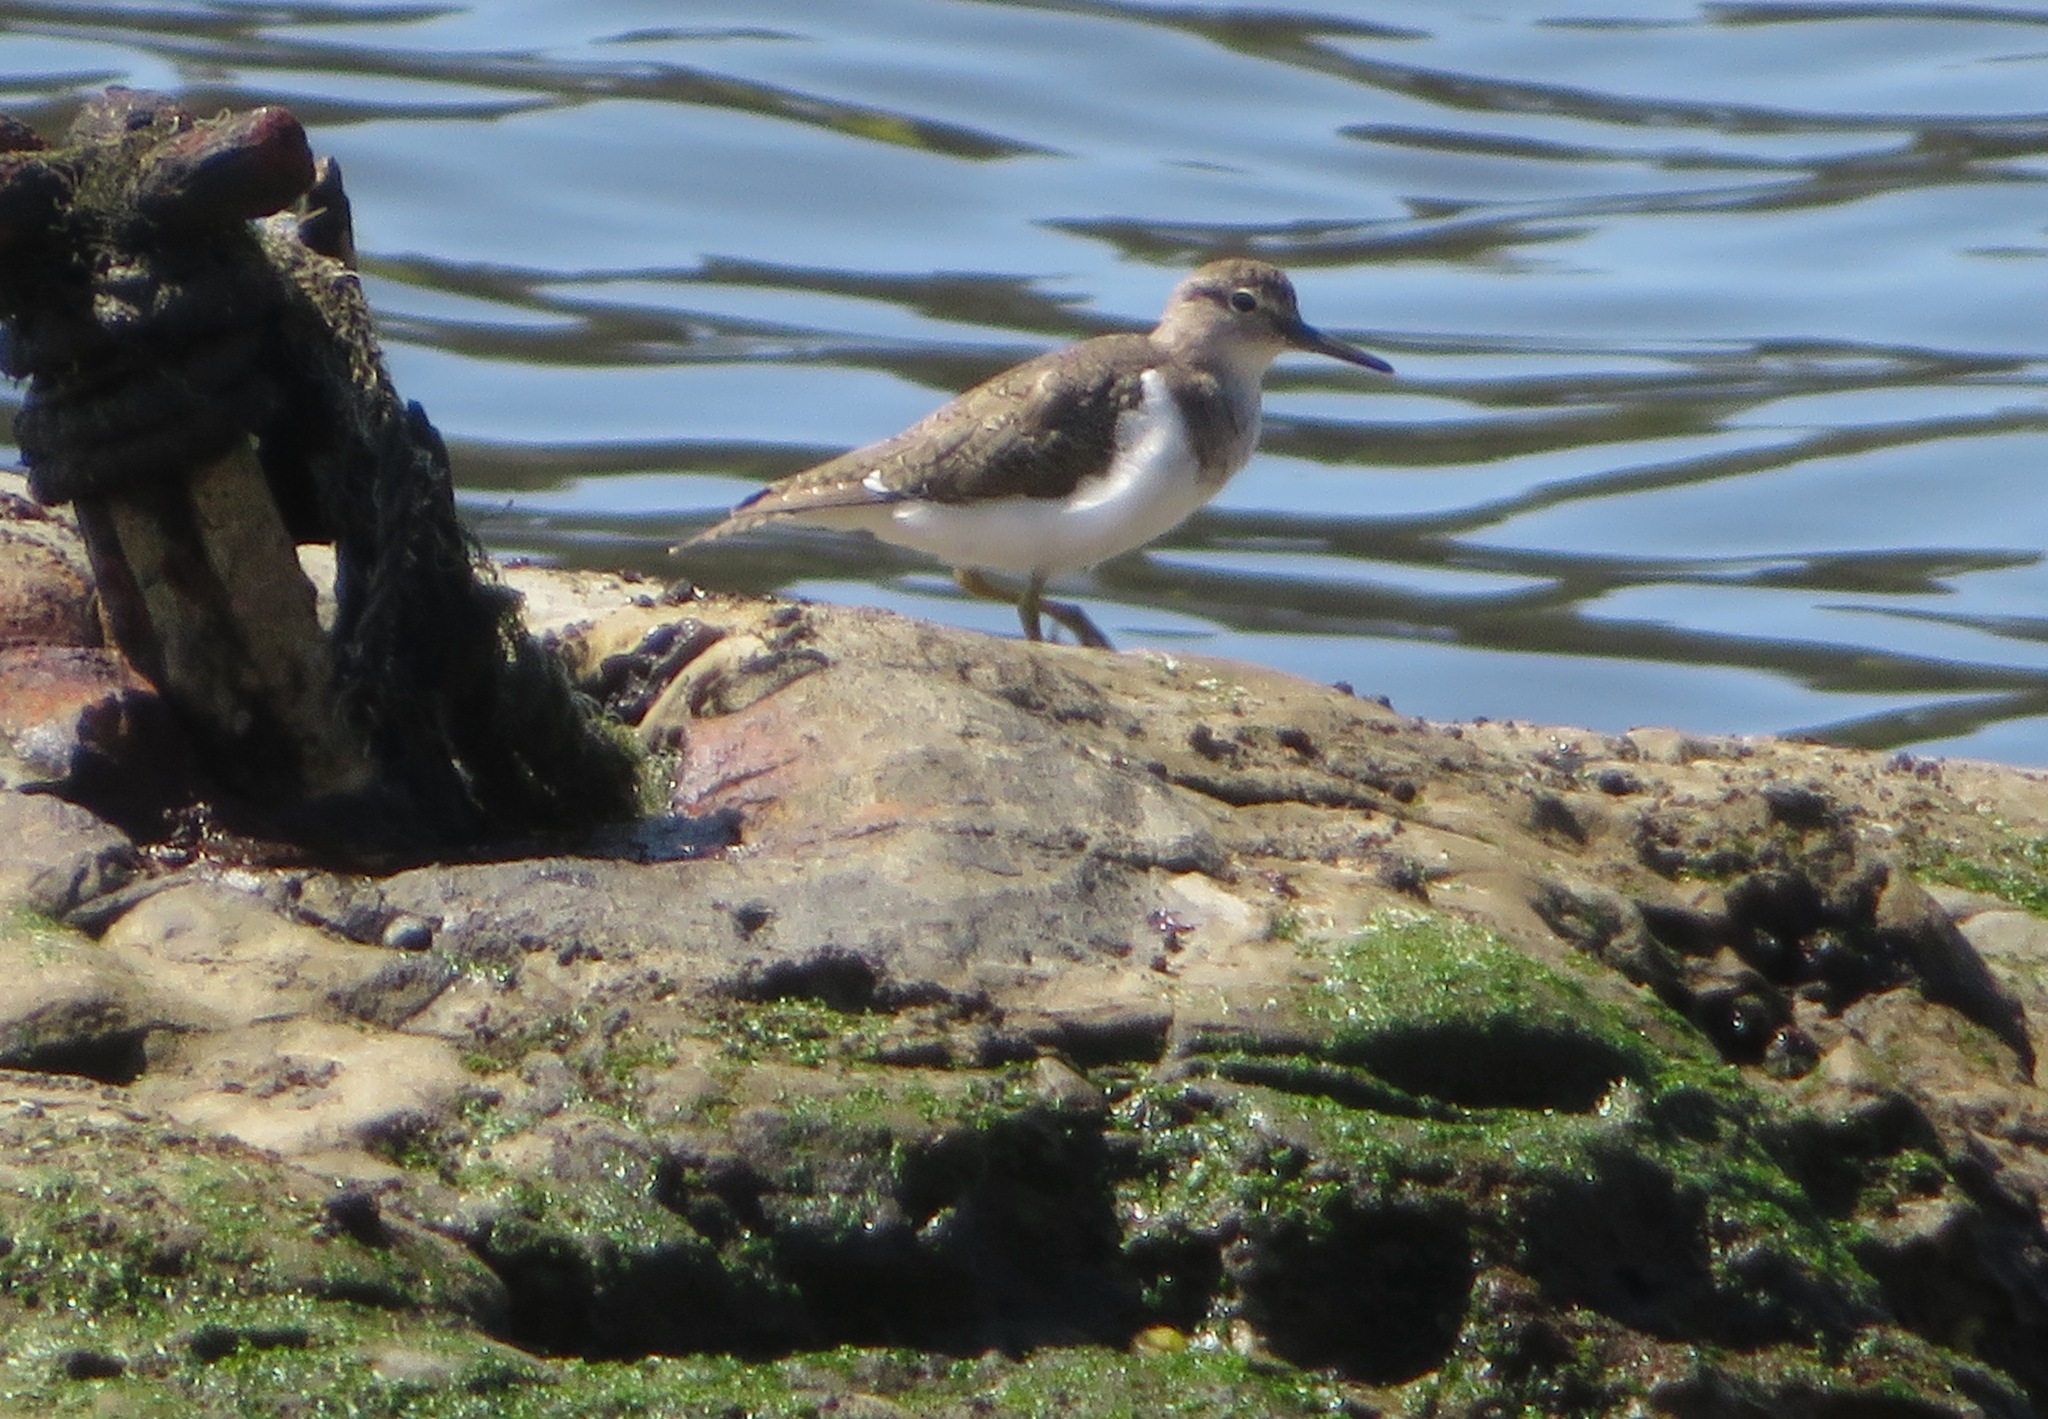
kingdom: Animalia
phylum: Chordata
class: Aves
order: Charadriiformes
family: Scolopacidae
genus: Actitis
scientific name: Actitis hypoleucos
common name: Common sandpiper
